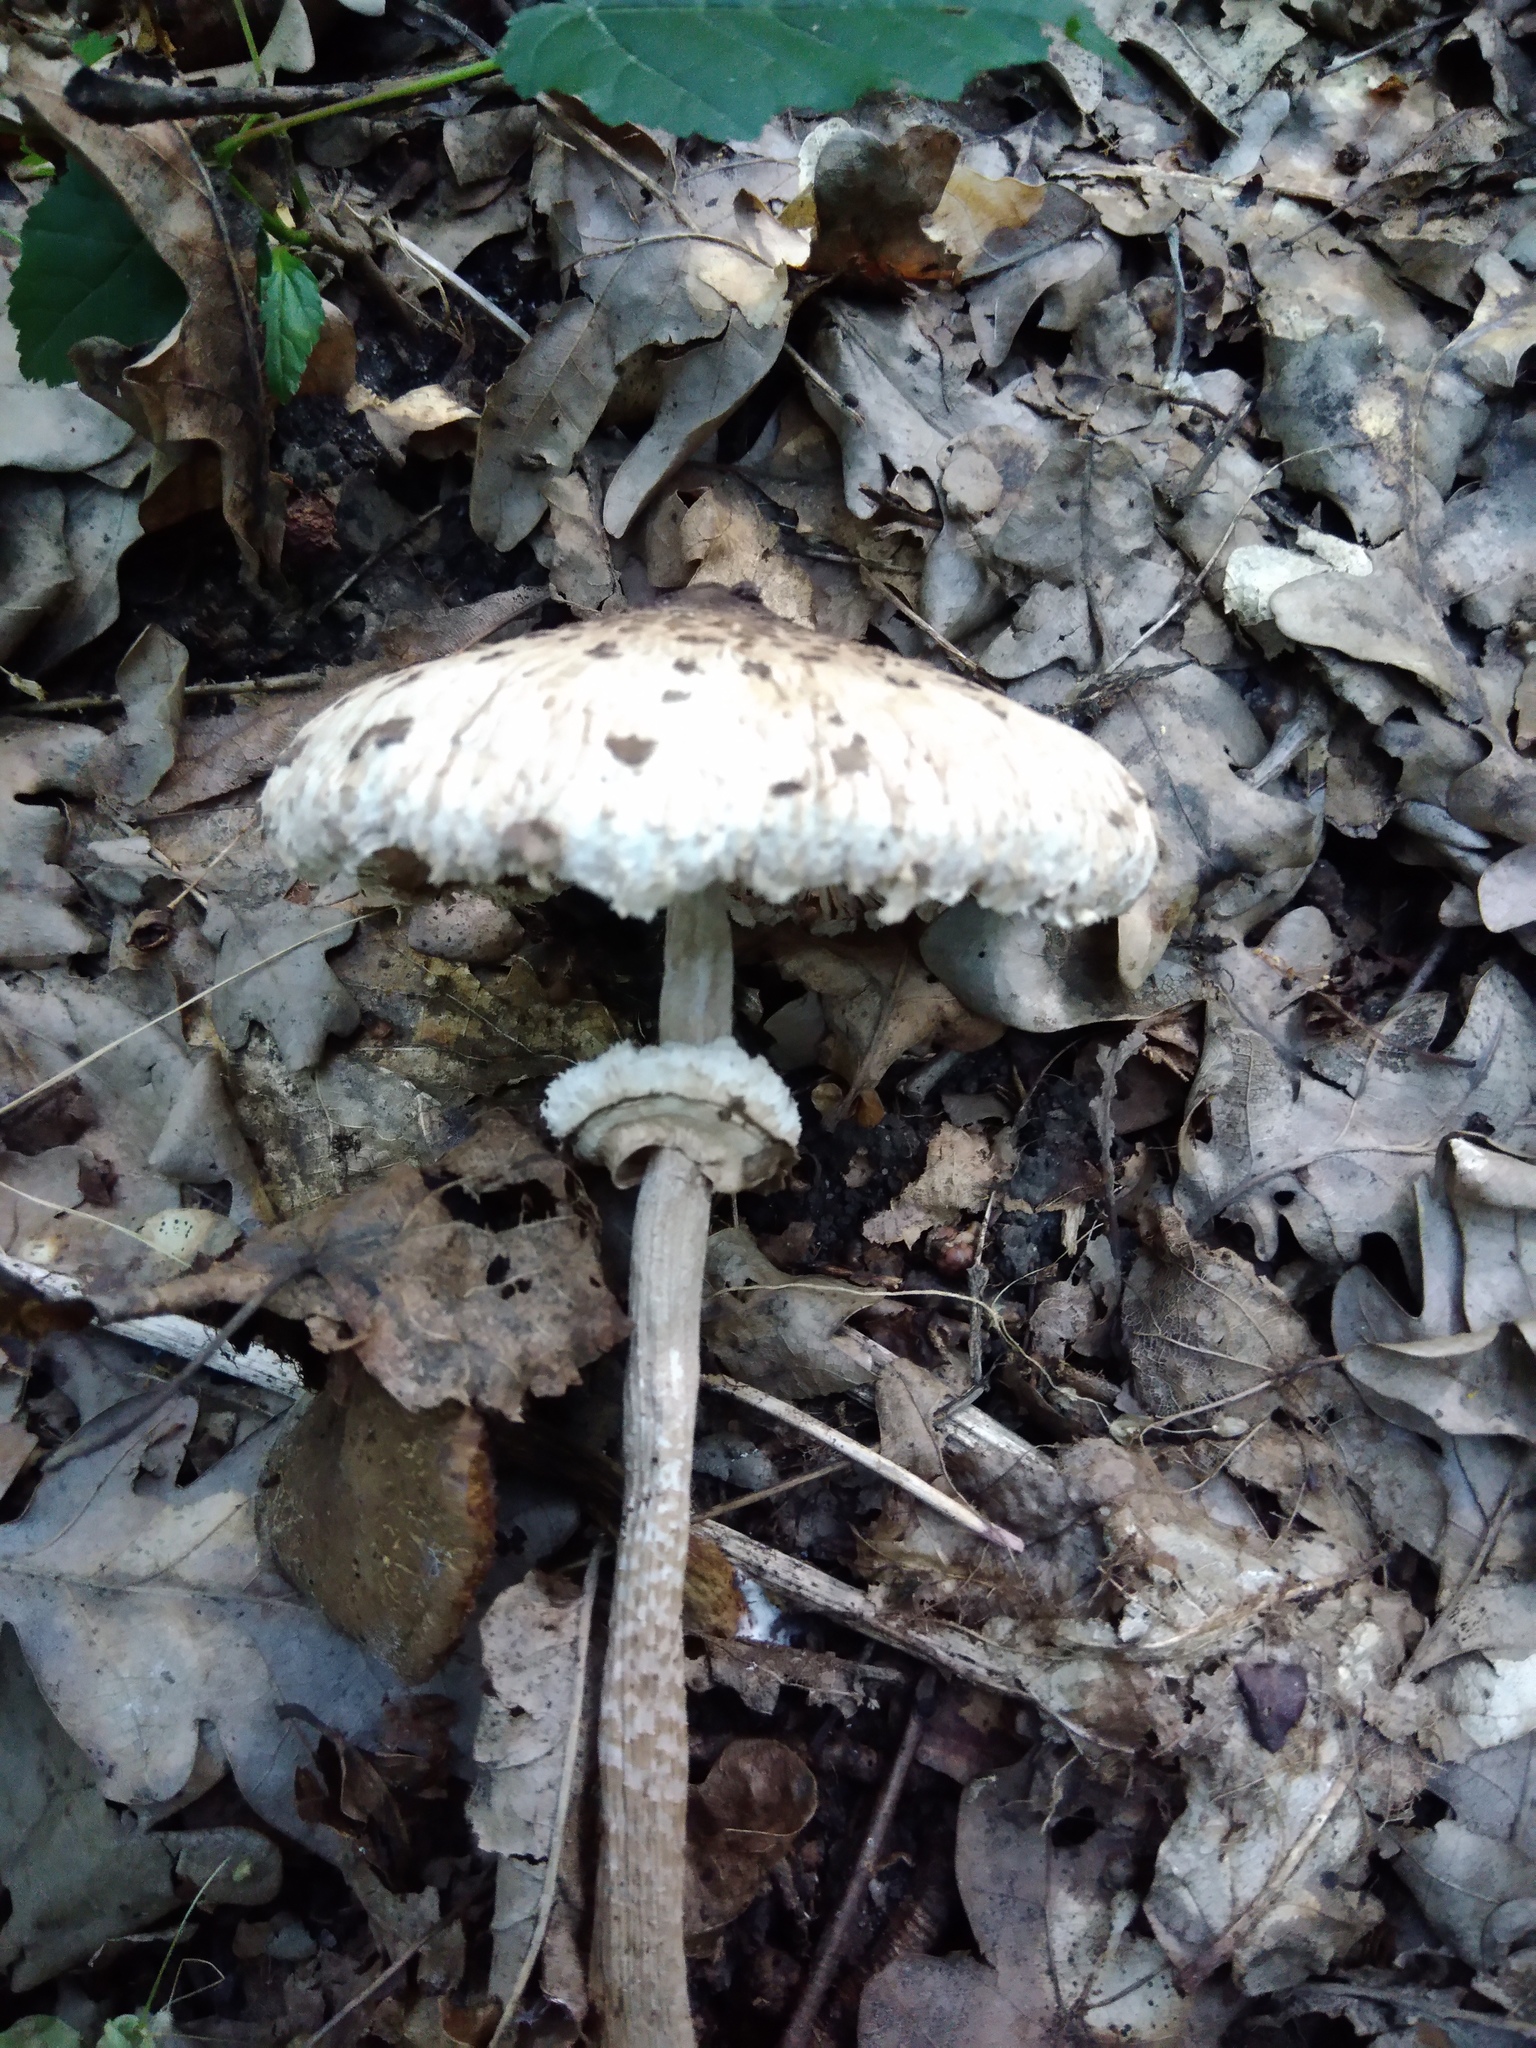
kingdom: Fungi
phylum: Basidiomycota
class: Agaricomycetes
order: Agaricales
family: Agaricaceae
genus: Macrolepiota
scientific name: Macrolepiota procera
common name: Parasol
